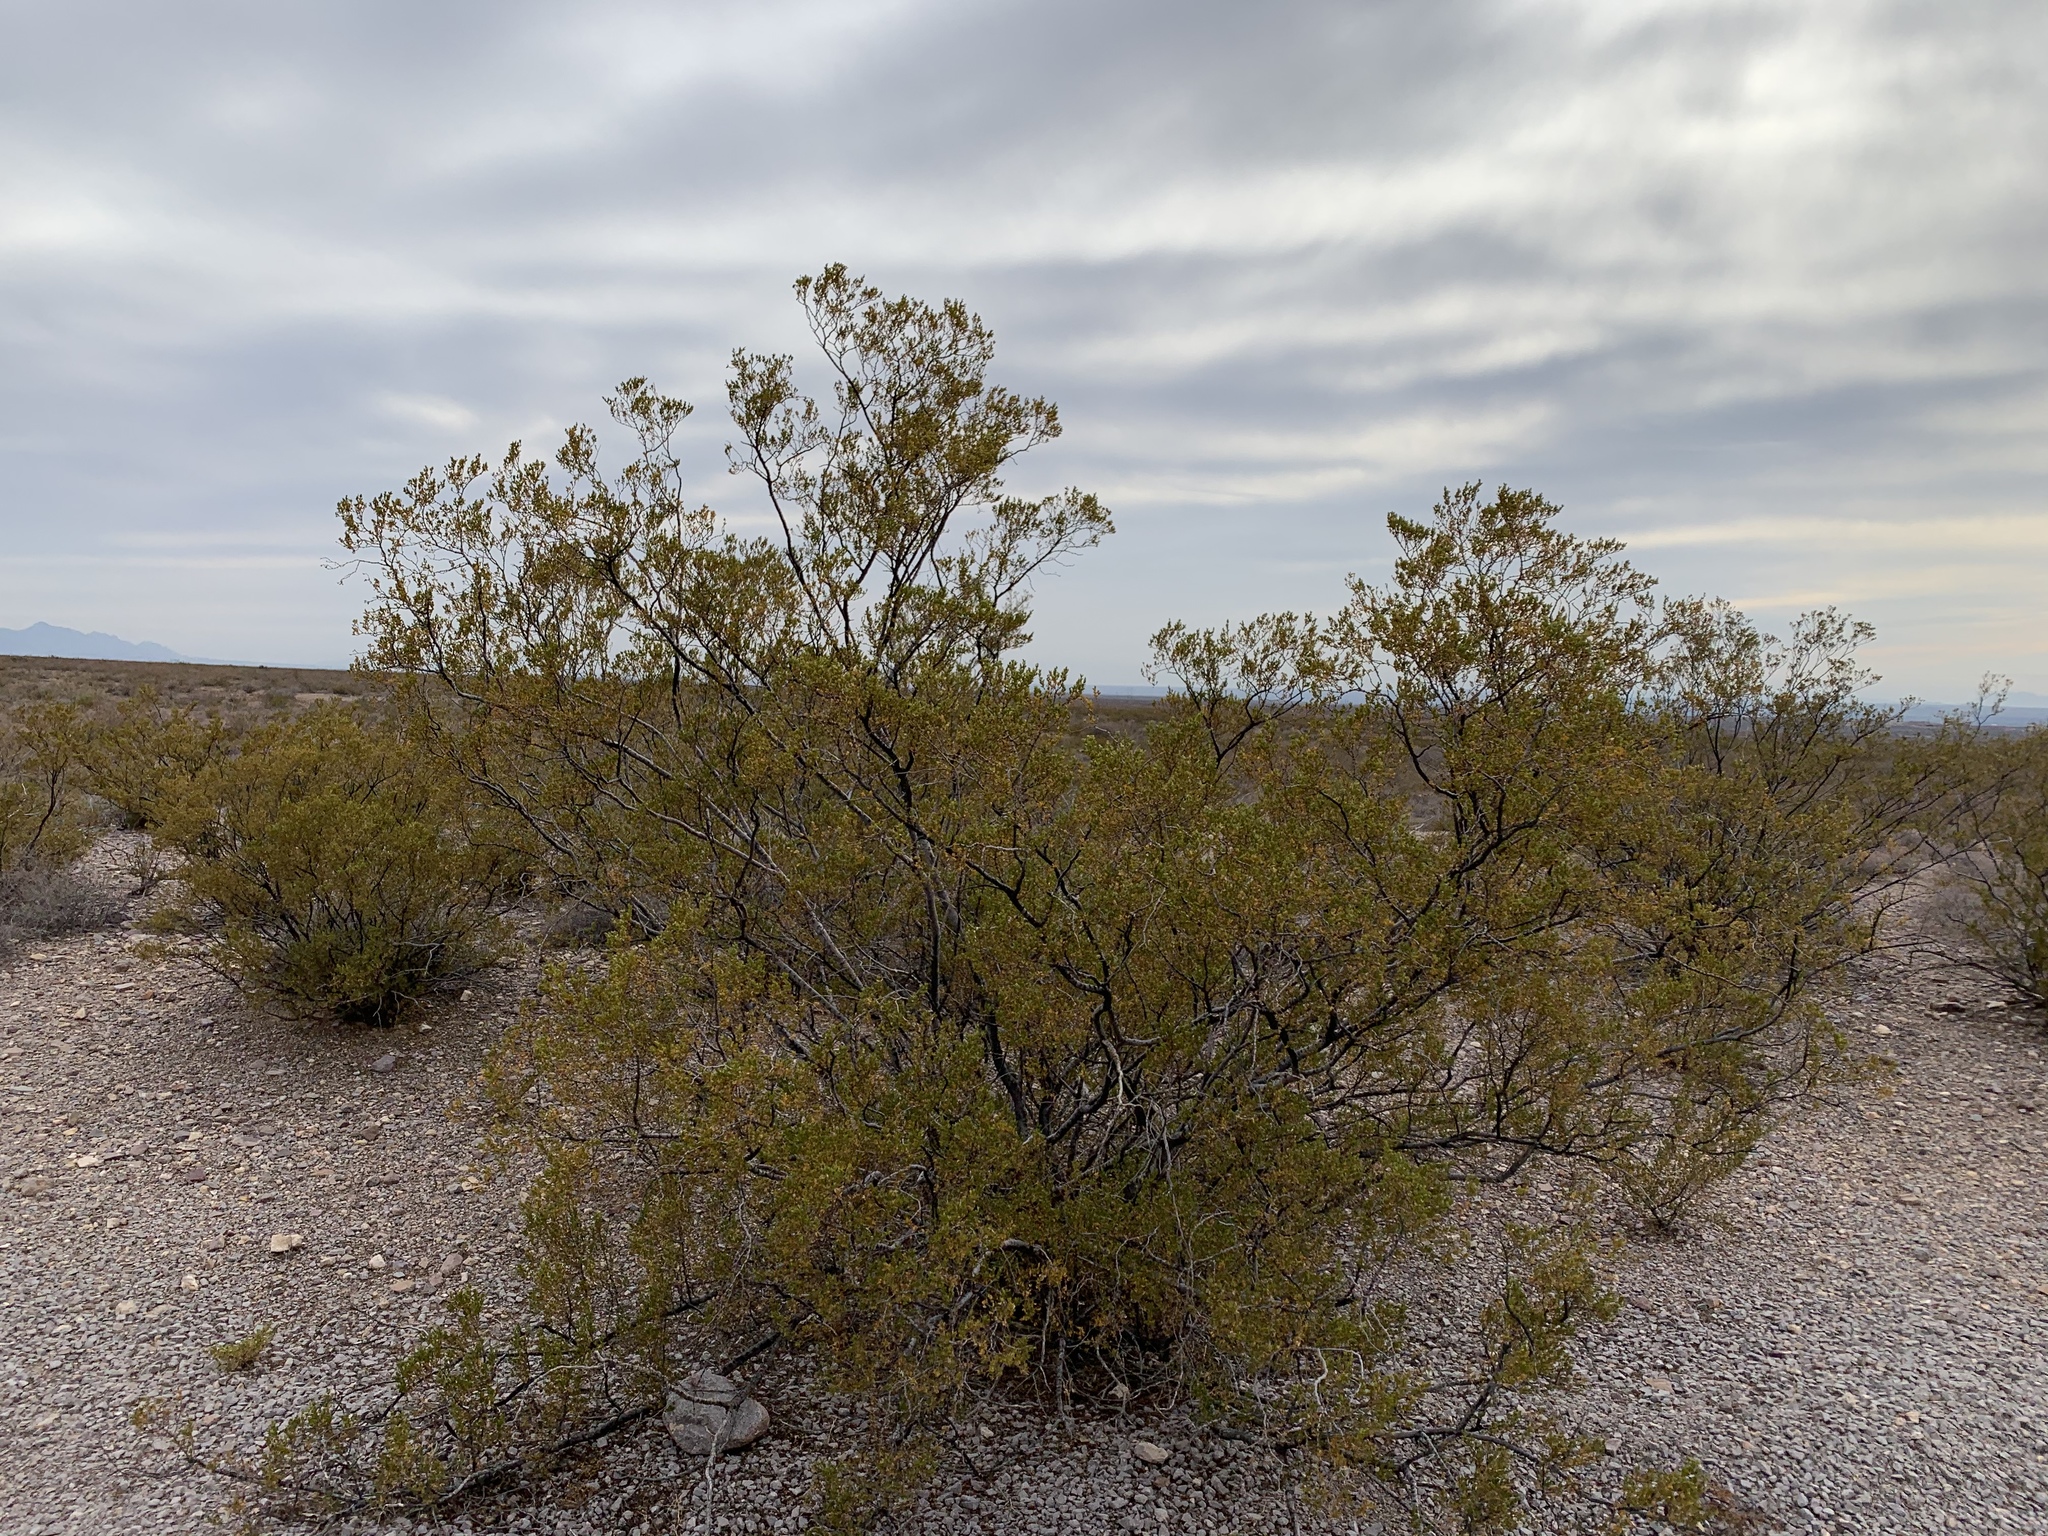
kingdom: Plantae
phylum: Tracheophyta
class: Magnoliopsida
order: Zygophyllales
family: Zygophyllaceae
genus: Larrea
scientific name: Larrea tridentata
